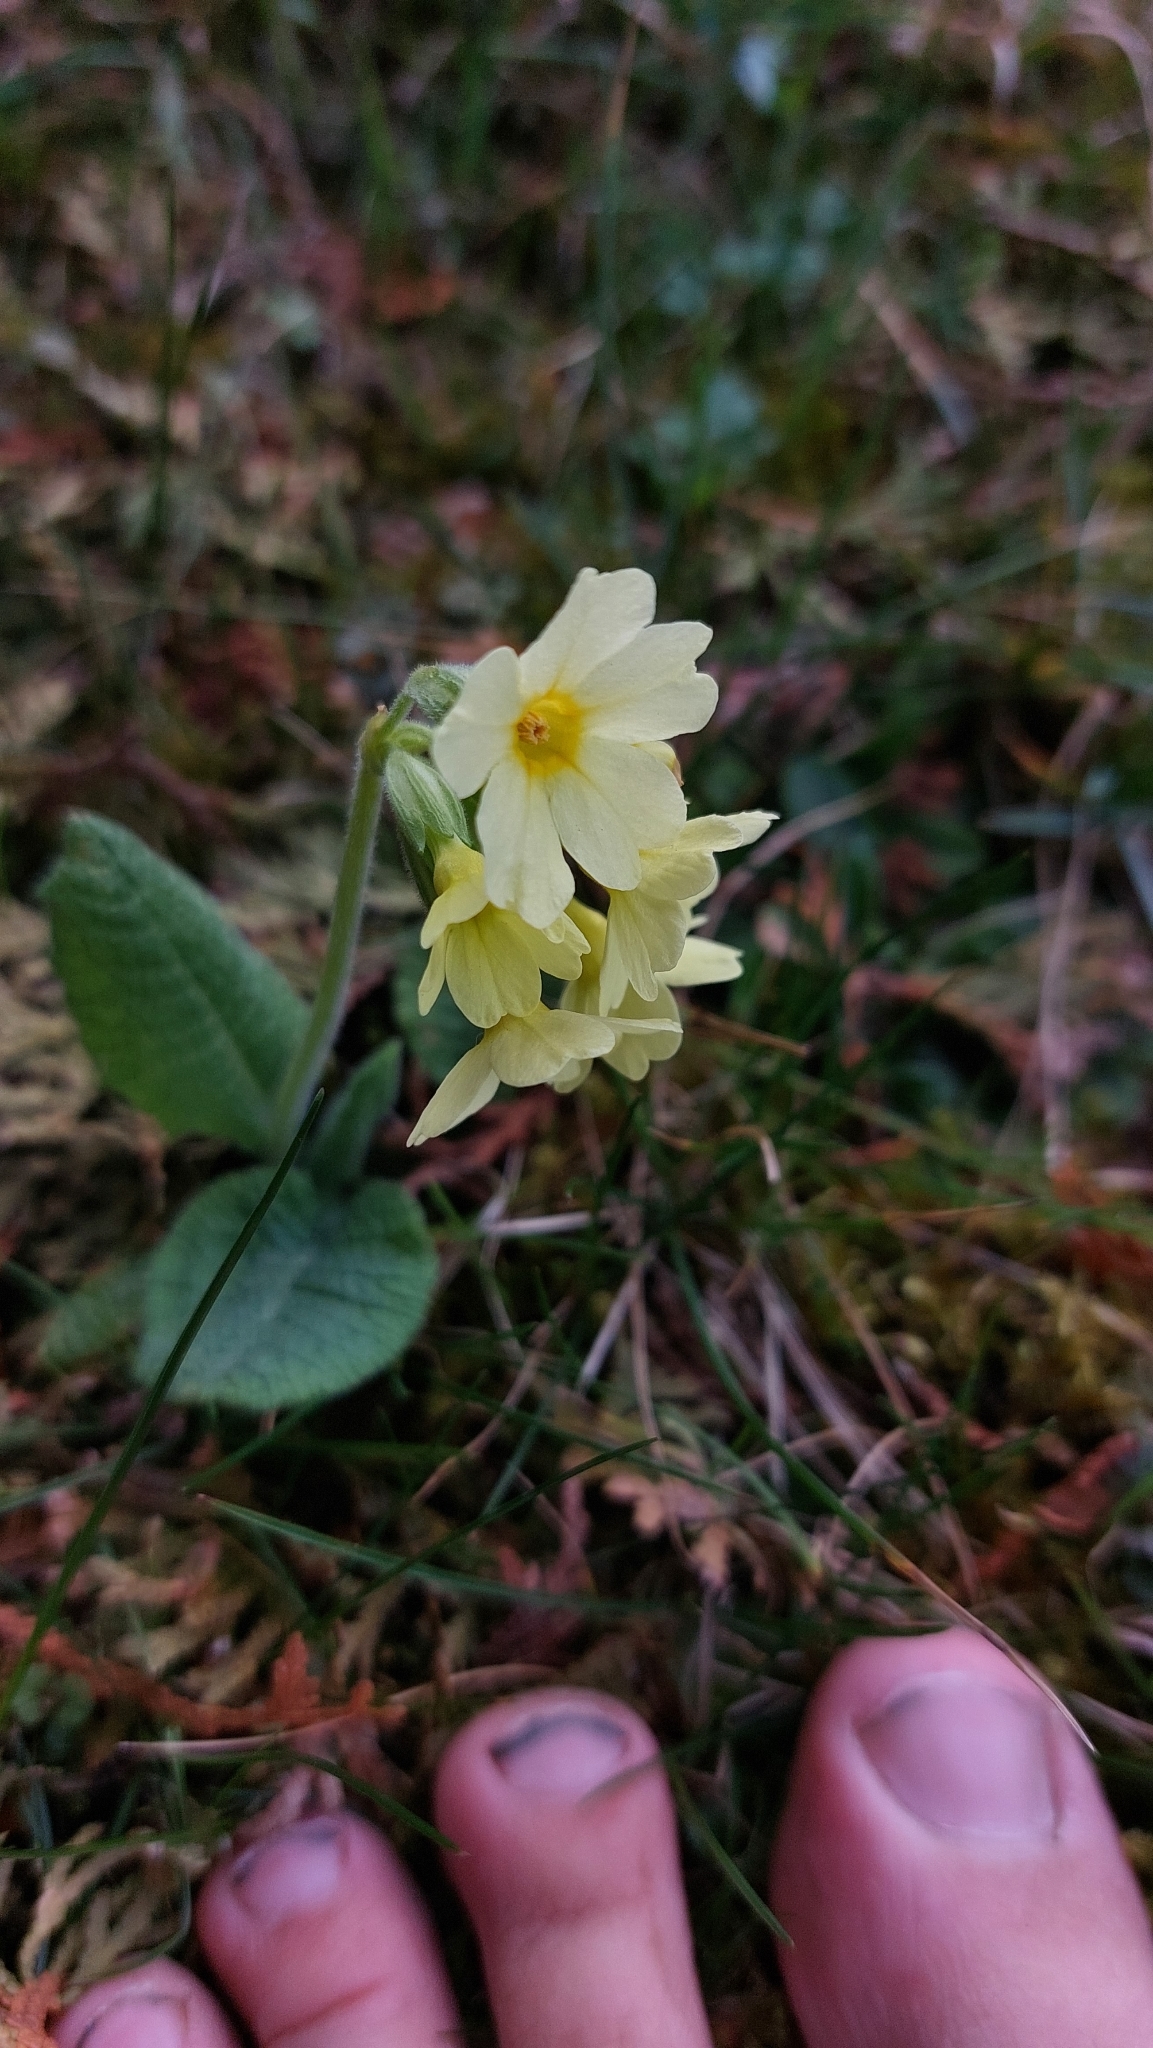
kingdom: Plantae
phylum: Tracheophyta
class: Magnoliopsida
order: Ericales
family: Primulaceae
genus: Primula
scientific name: Primula elatior
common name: Oxlip
